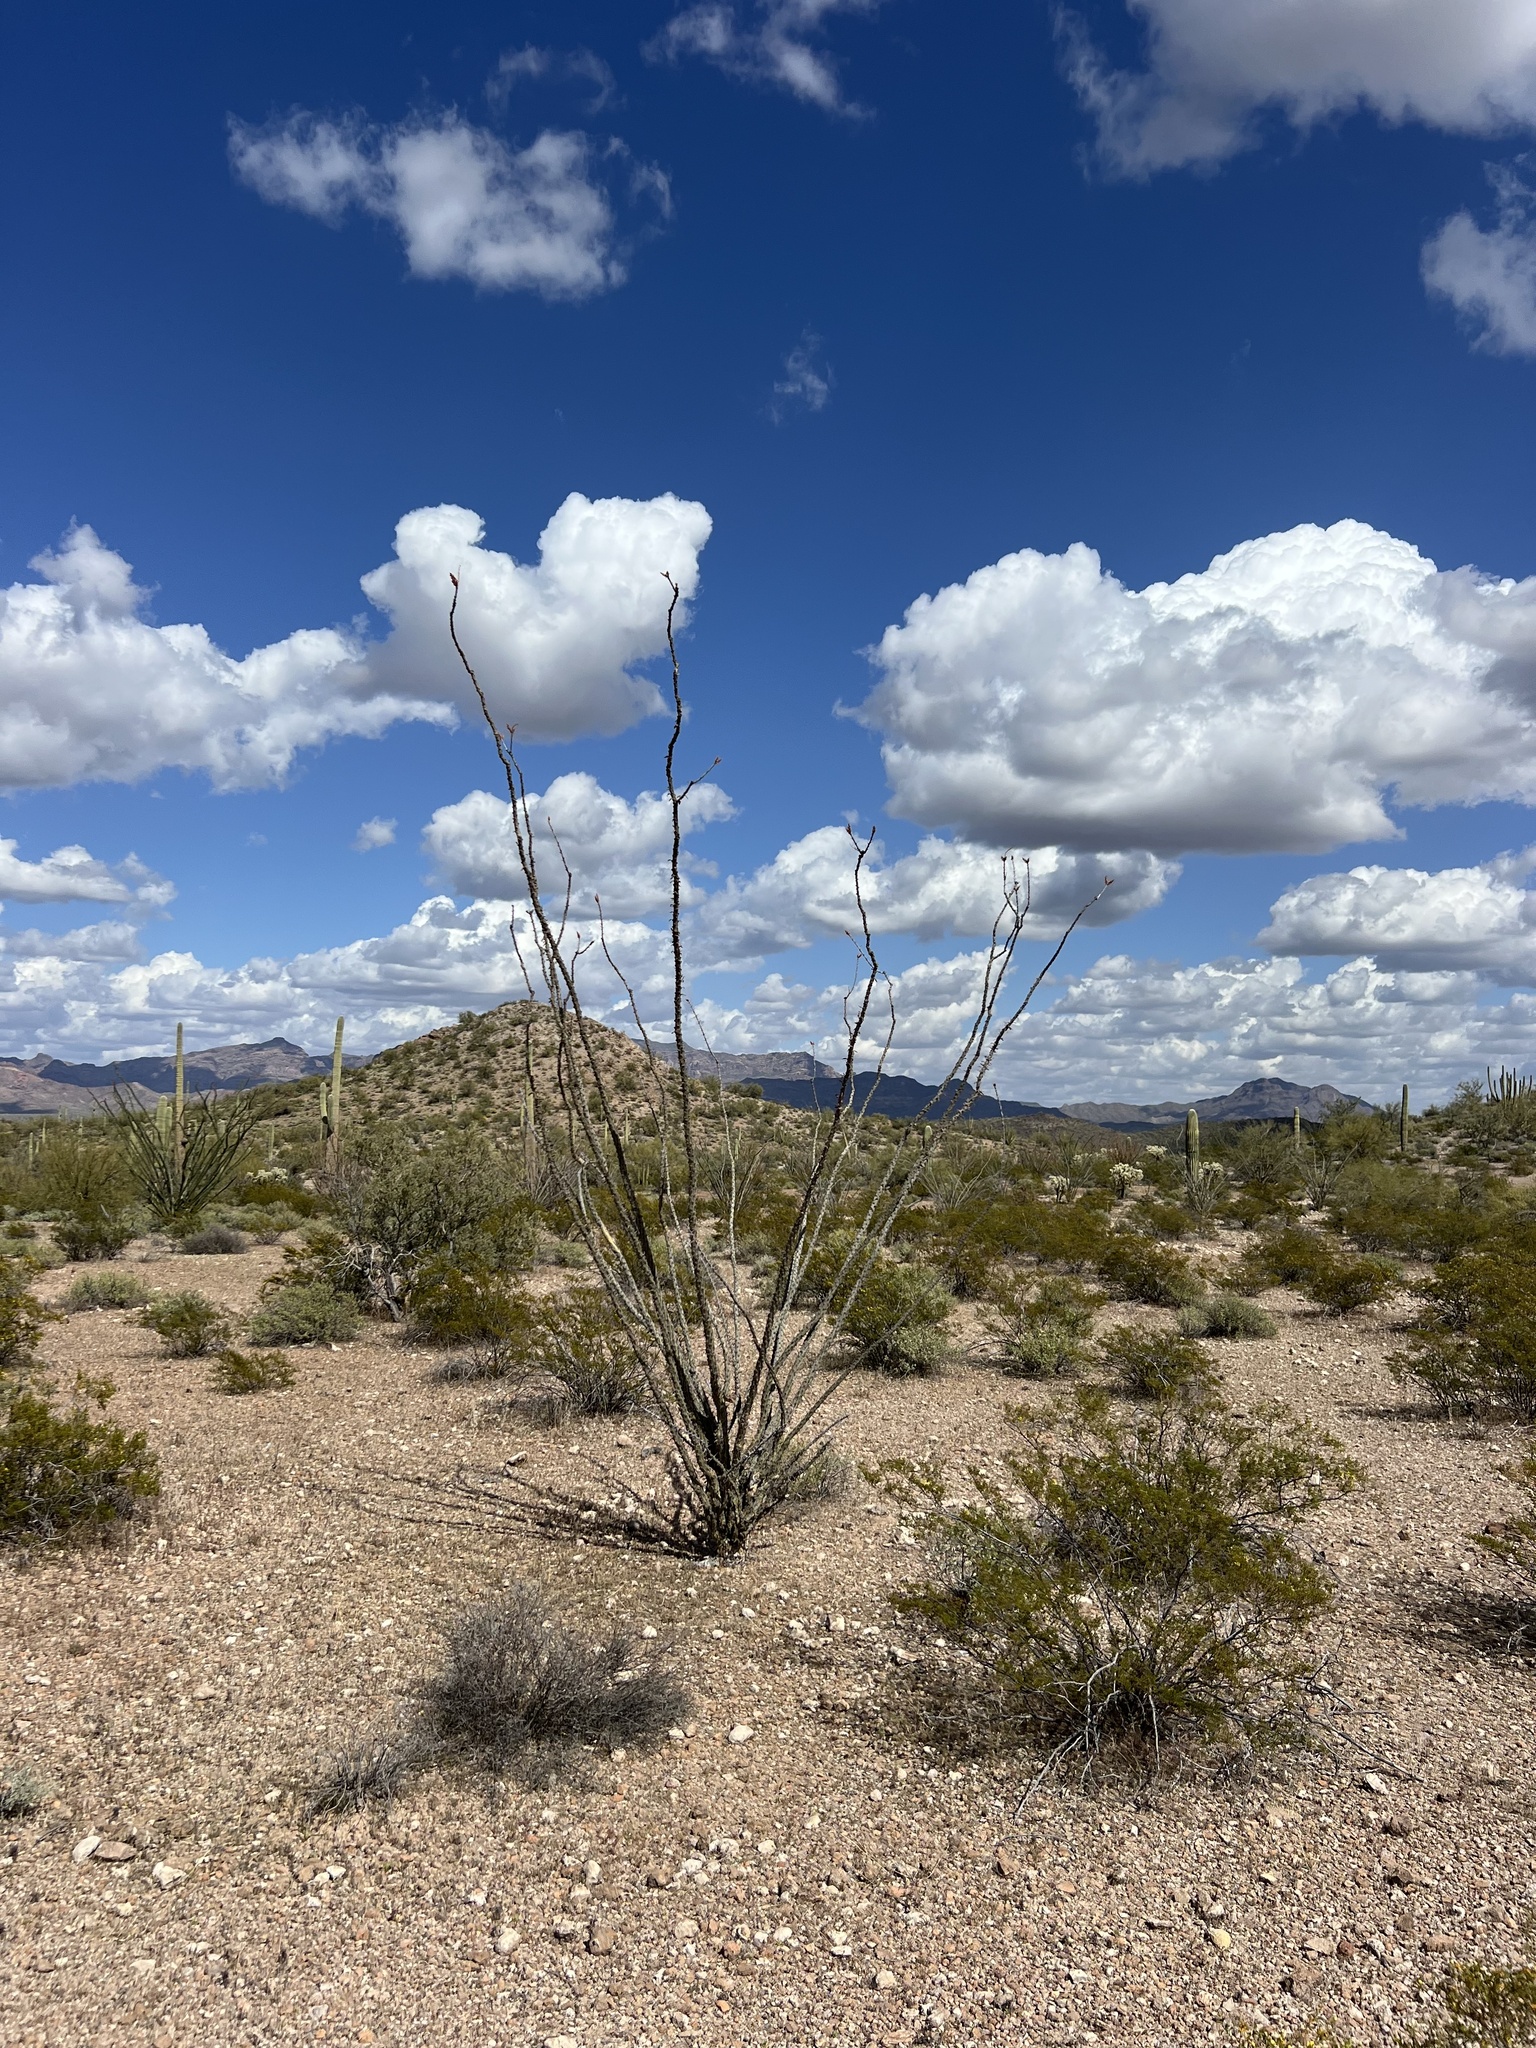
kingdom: Plantae
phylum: Tracheophyta
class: Magnoliopsida
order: Ericales
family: Fouquieriaceae
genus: Fouquieria
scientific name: Fouquieria splendens
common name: Vine-cactus
